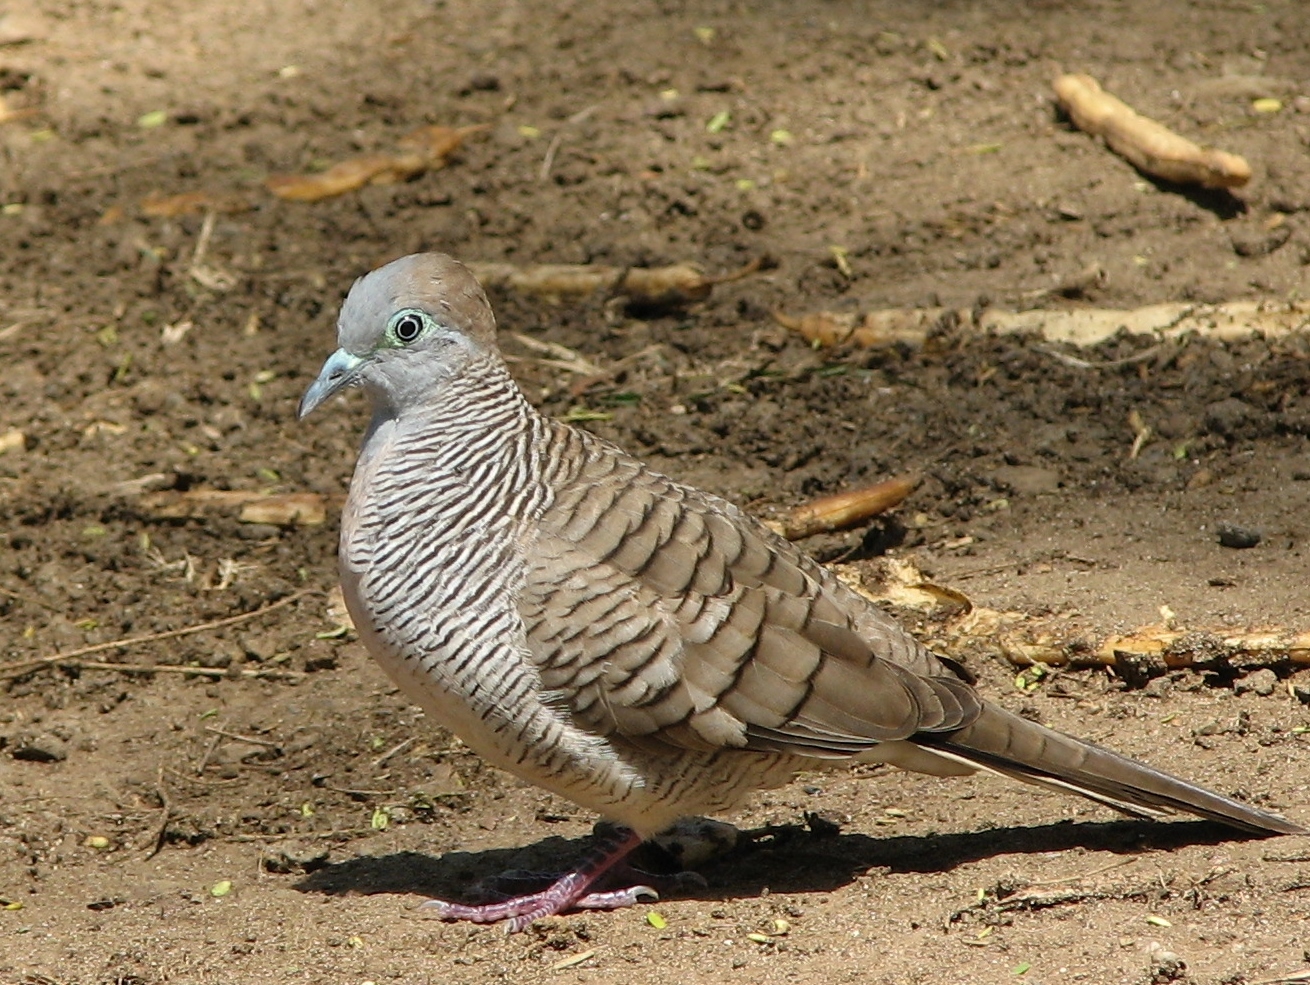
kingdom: Animalia
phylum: Chordata
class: Aves
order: Columbiformes
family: Columbidae
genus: Geopelia
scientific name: Geopelia striata
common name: Zebra dove
